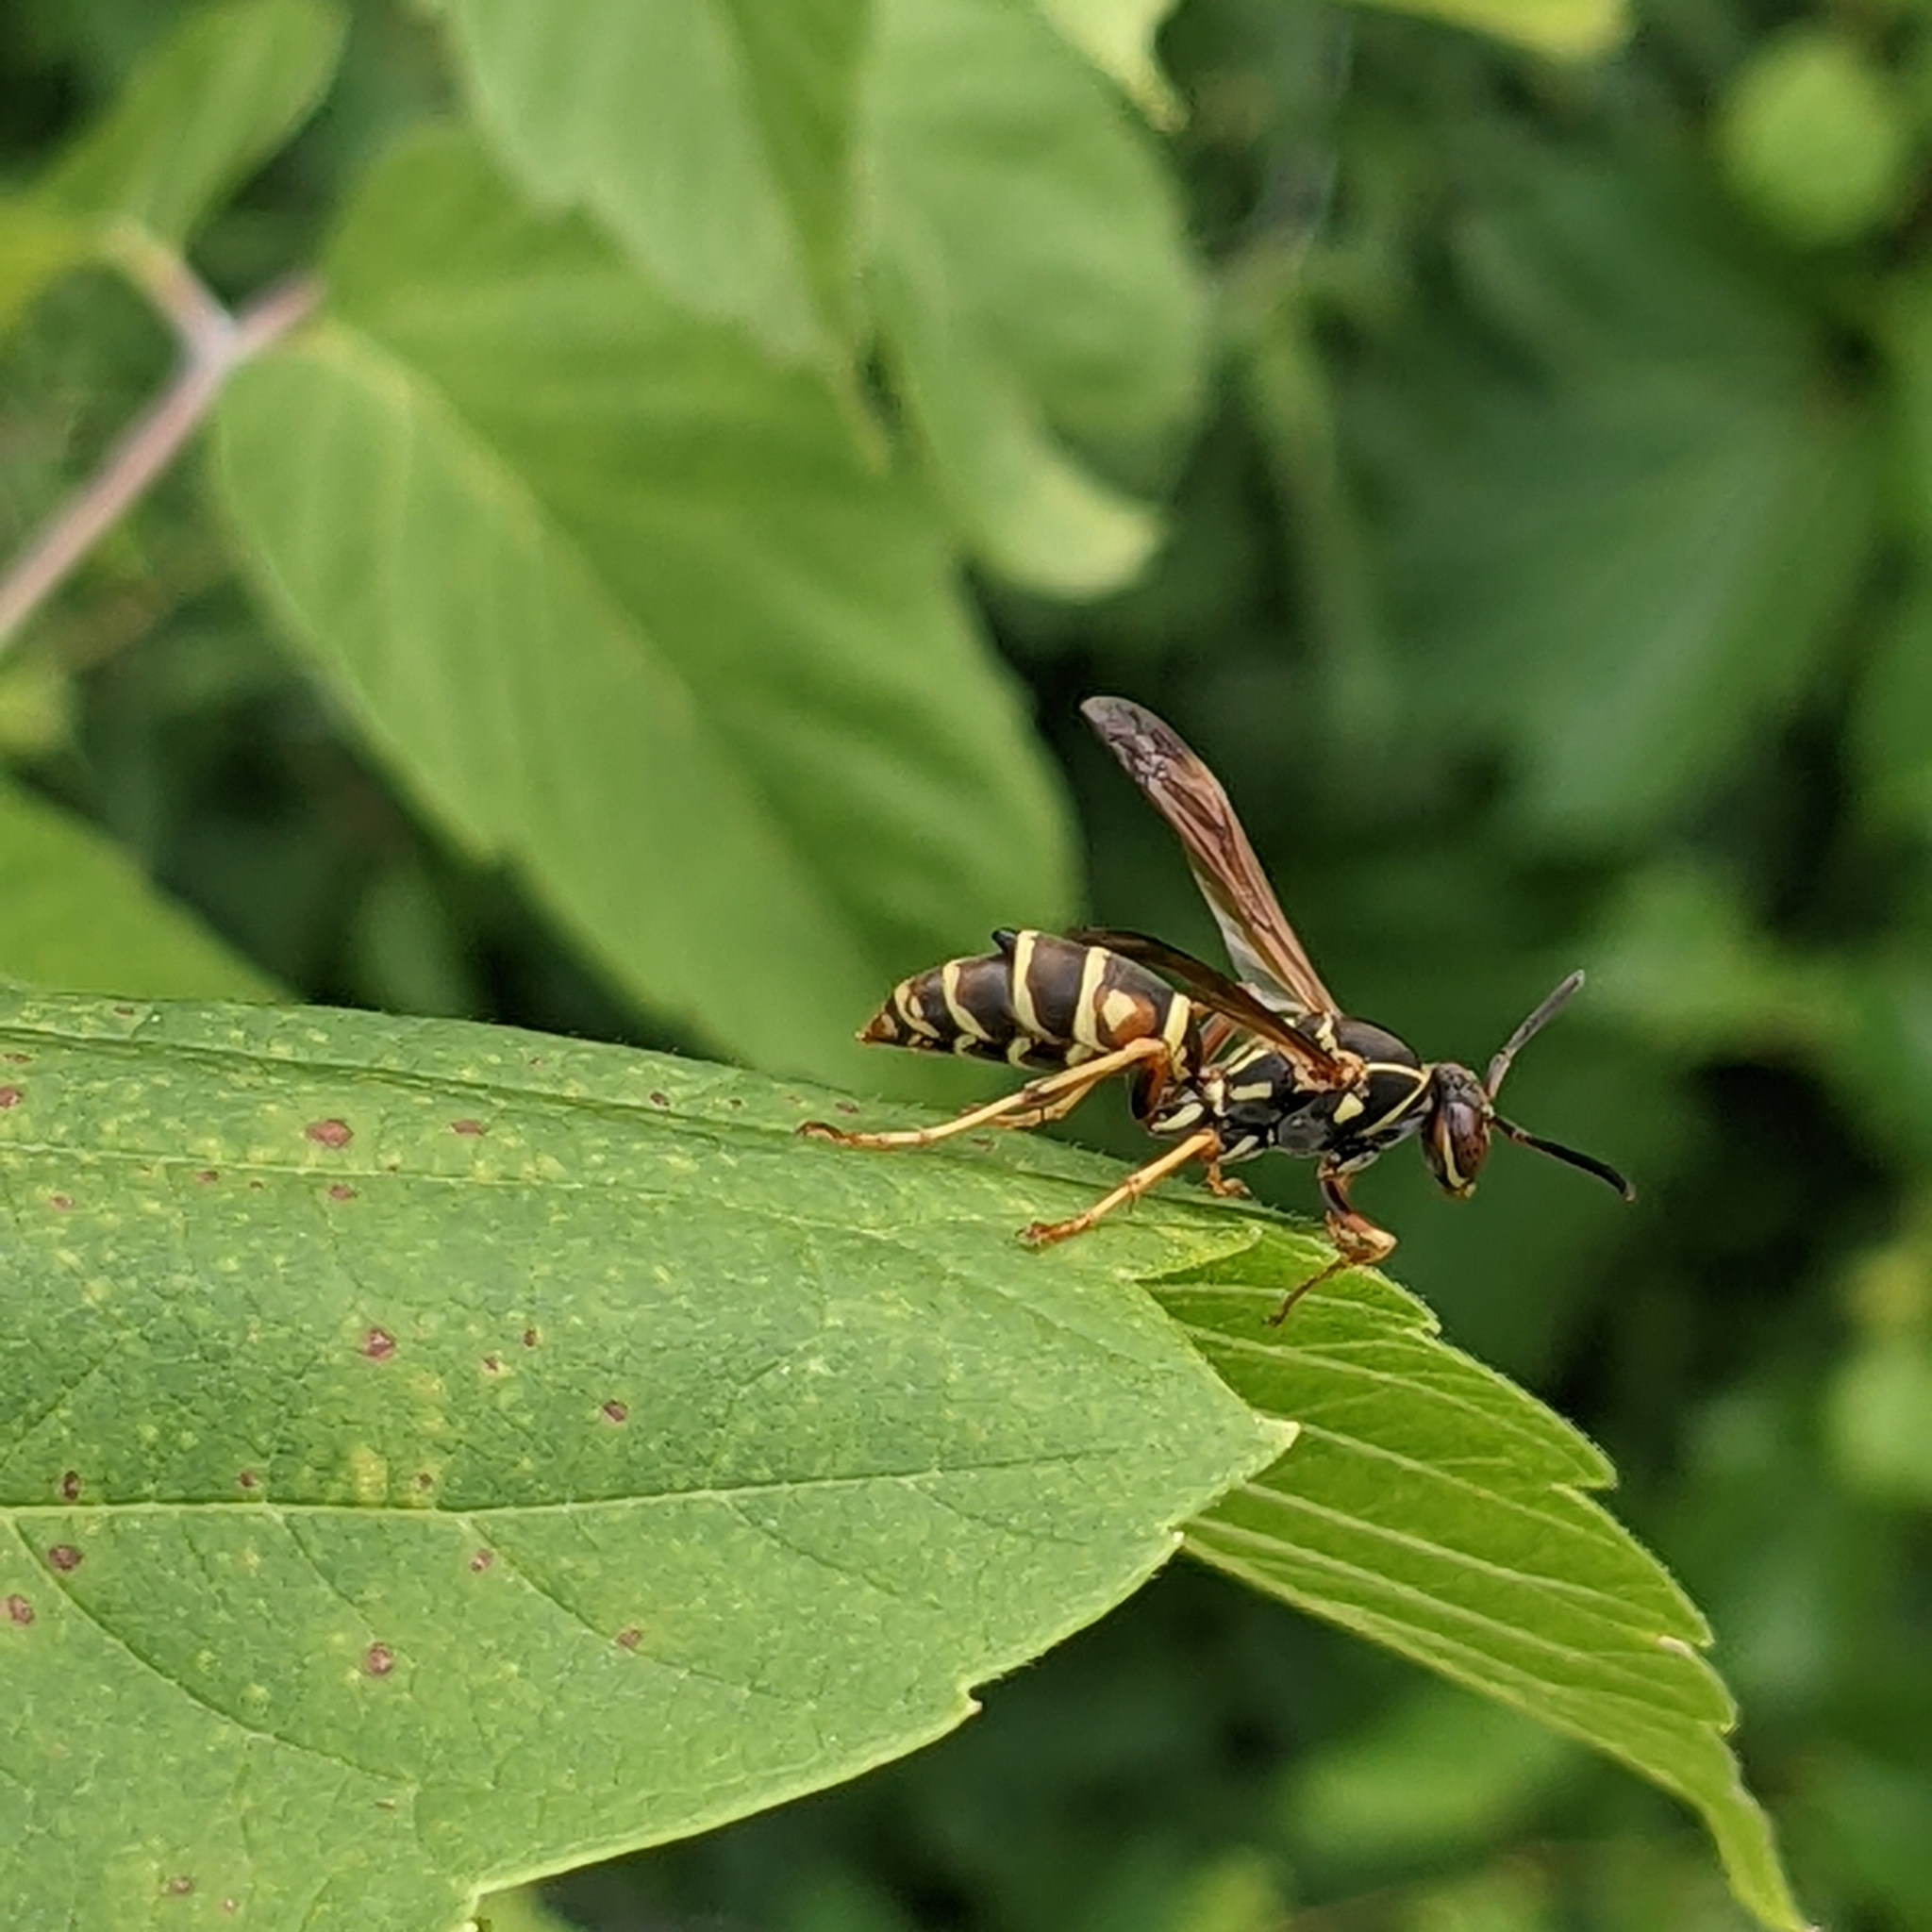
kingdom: Animalia
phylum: Arthropoda
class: Insecta
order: Hymenoptera
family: Eumenidae
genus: Polistes
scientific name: Polistes fuscatus
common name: Dark paper wasp
